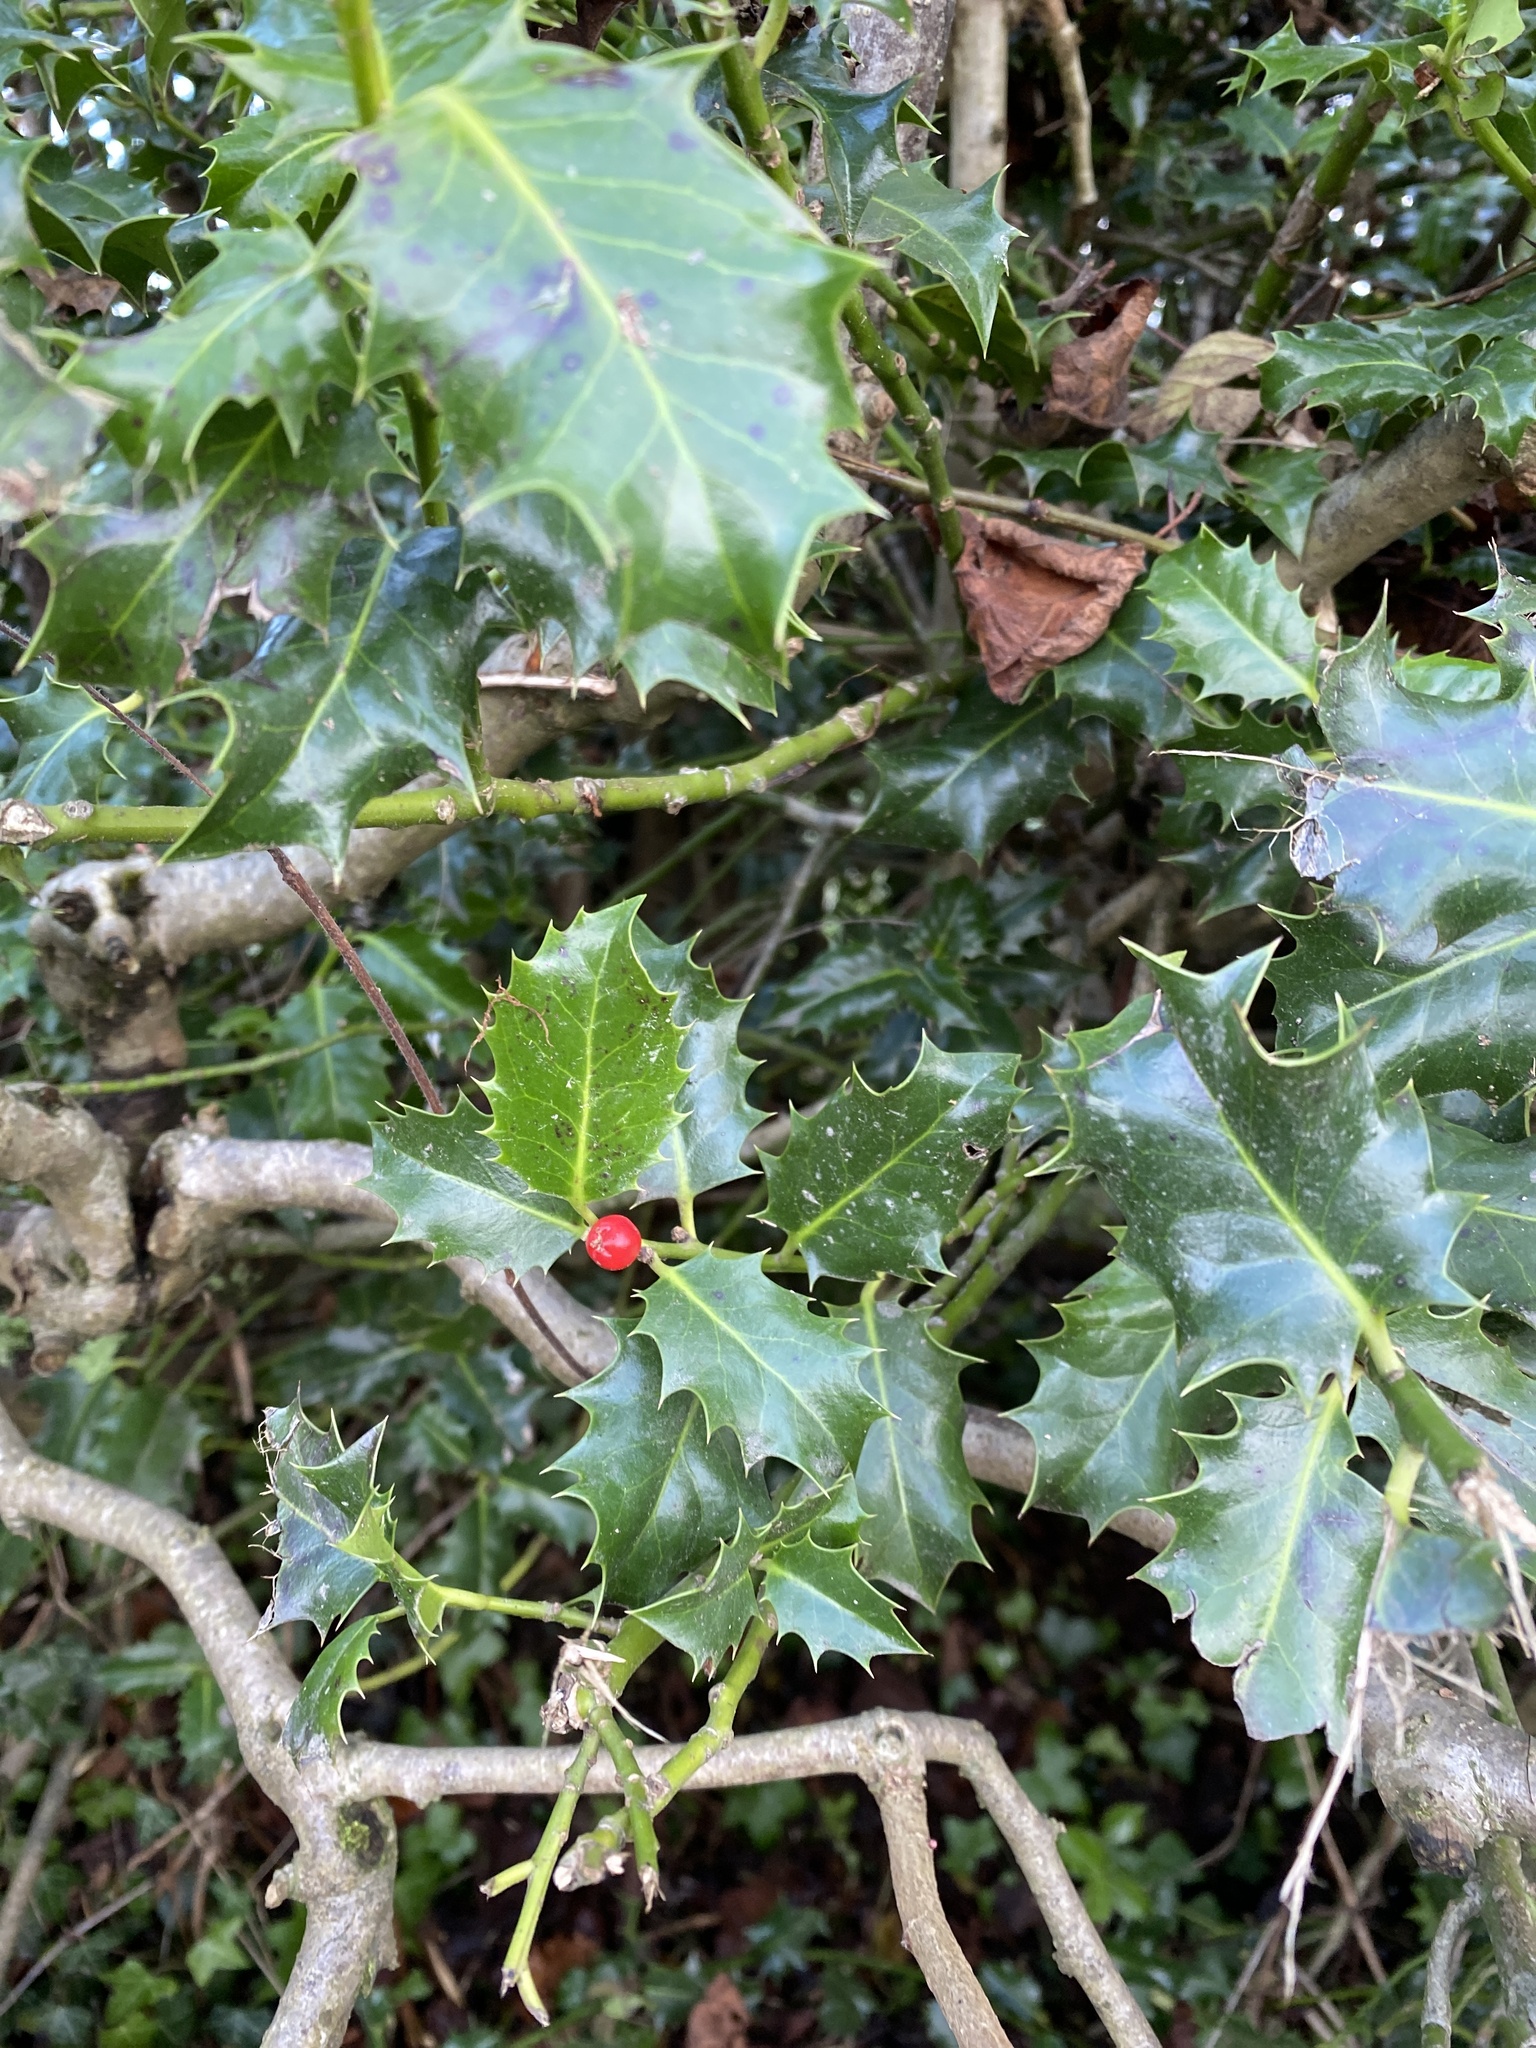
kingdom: Plantae
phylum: Tracheophyta
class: Magnoliopsida
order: Aquifoliales
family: Aquifoliaceae
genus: Ilex
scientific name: Ilex aquifolium
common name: English holly
